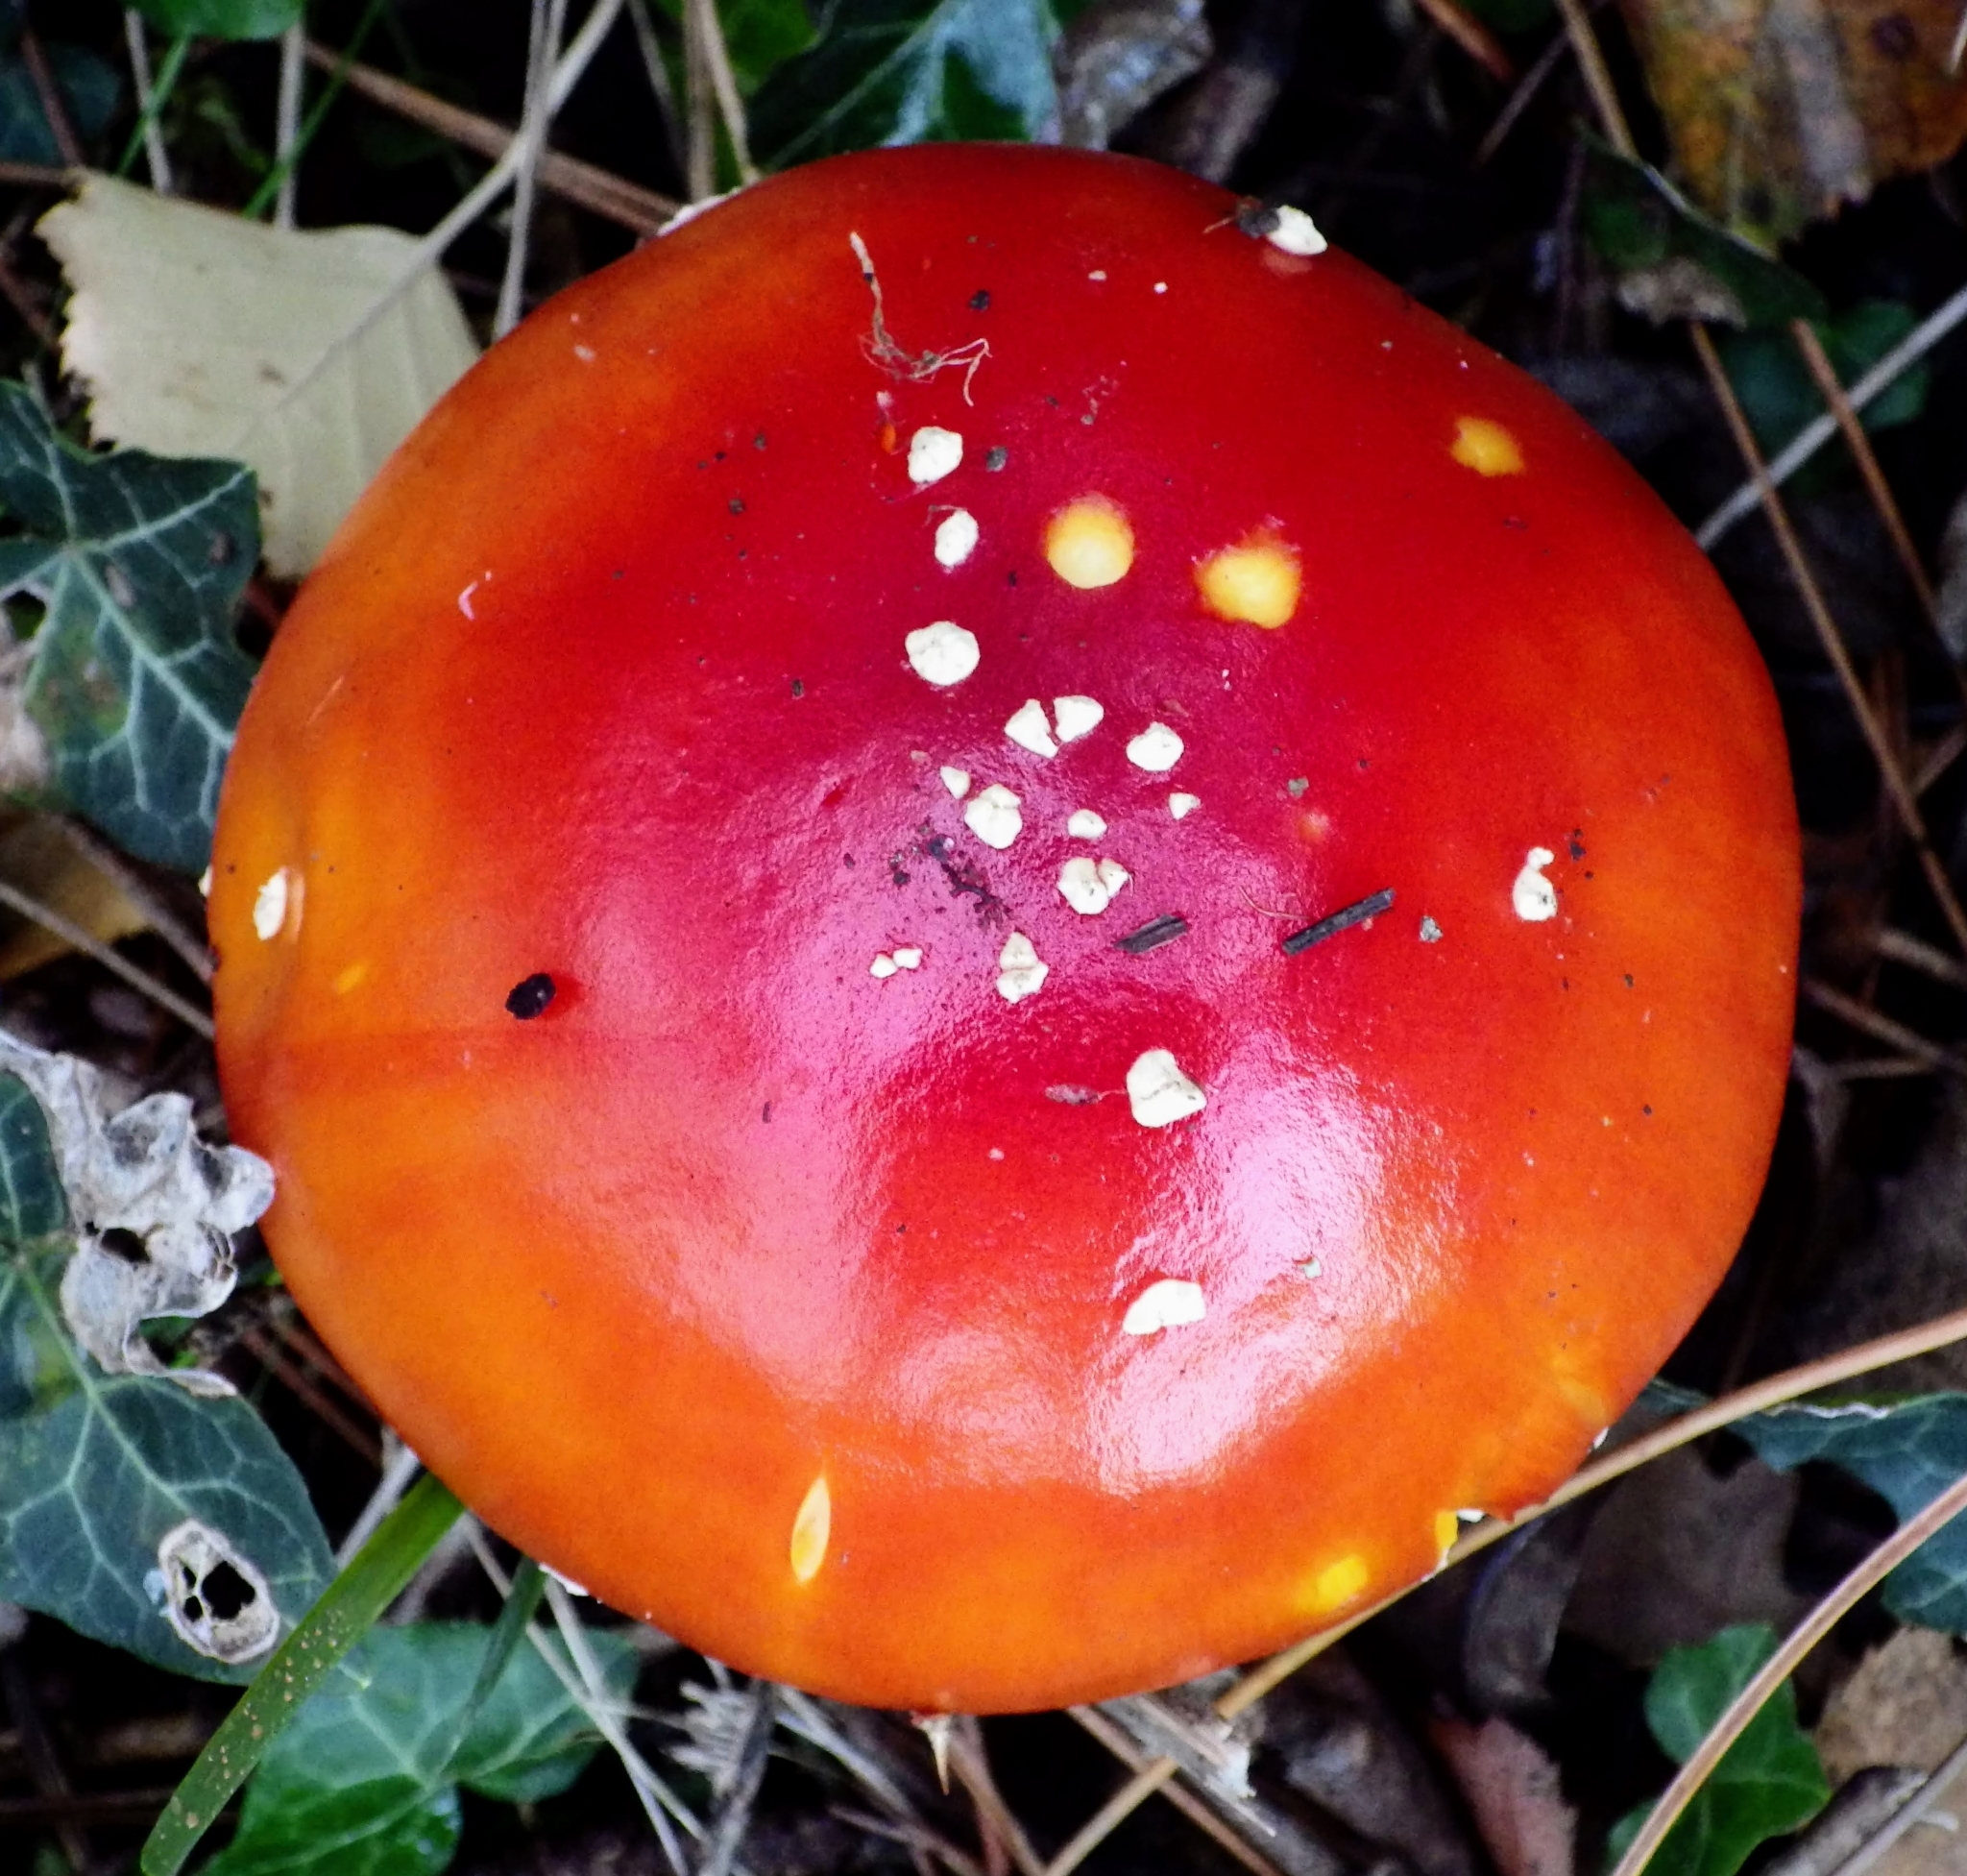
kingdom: Fungi
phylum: Basidiomycota
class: Agaricomycetes
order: Agaricales
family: Amanitaceae
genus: Amanita
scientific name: Amanita muscaria
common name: Fly agaric
